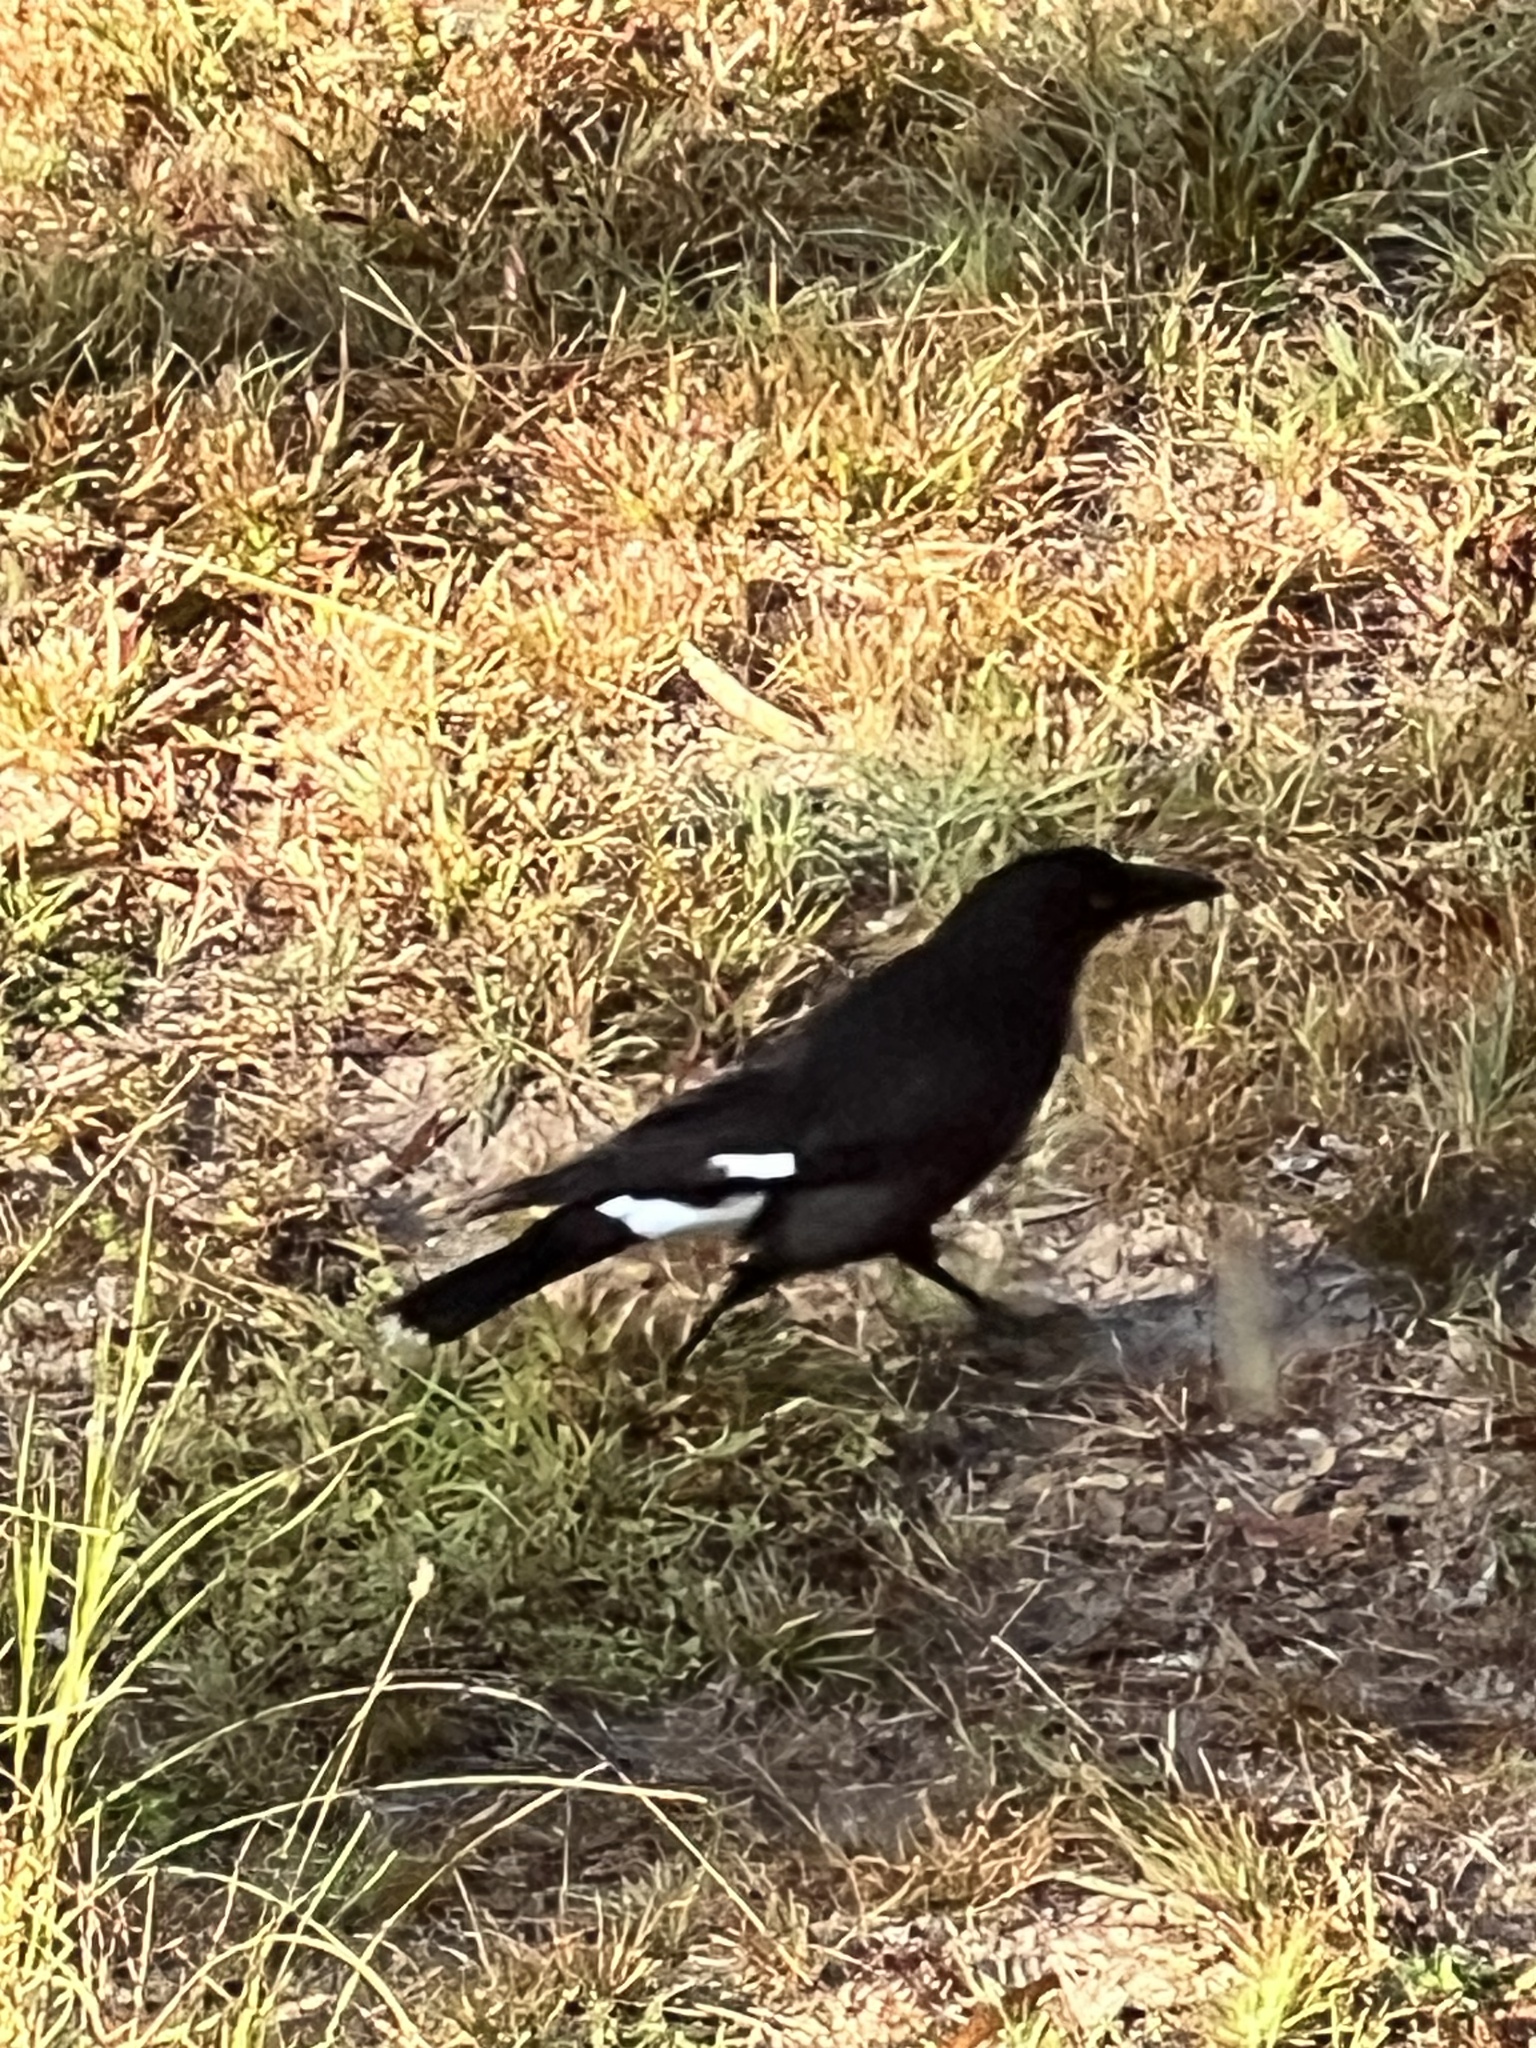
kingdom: Animalia
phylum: Chordata
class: Aves
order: Passeriformes
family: Cracticidae
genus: Strepera
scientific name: Strepera graculina
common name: Pied currawong
